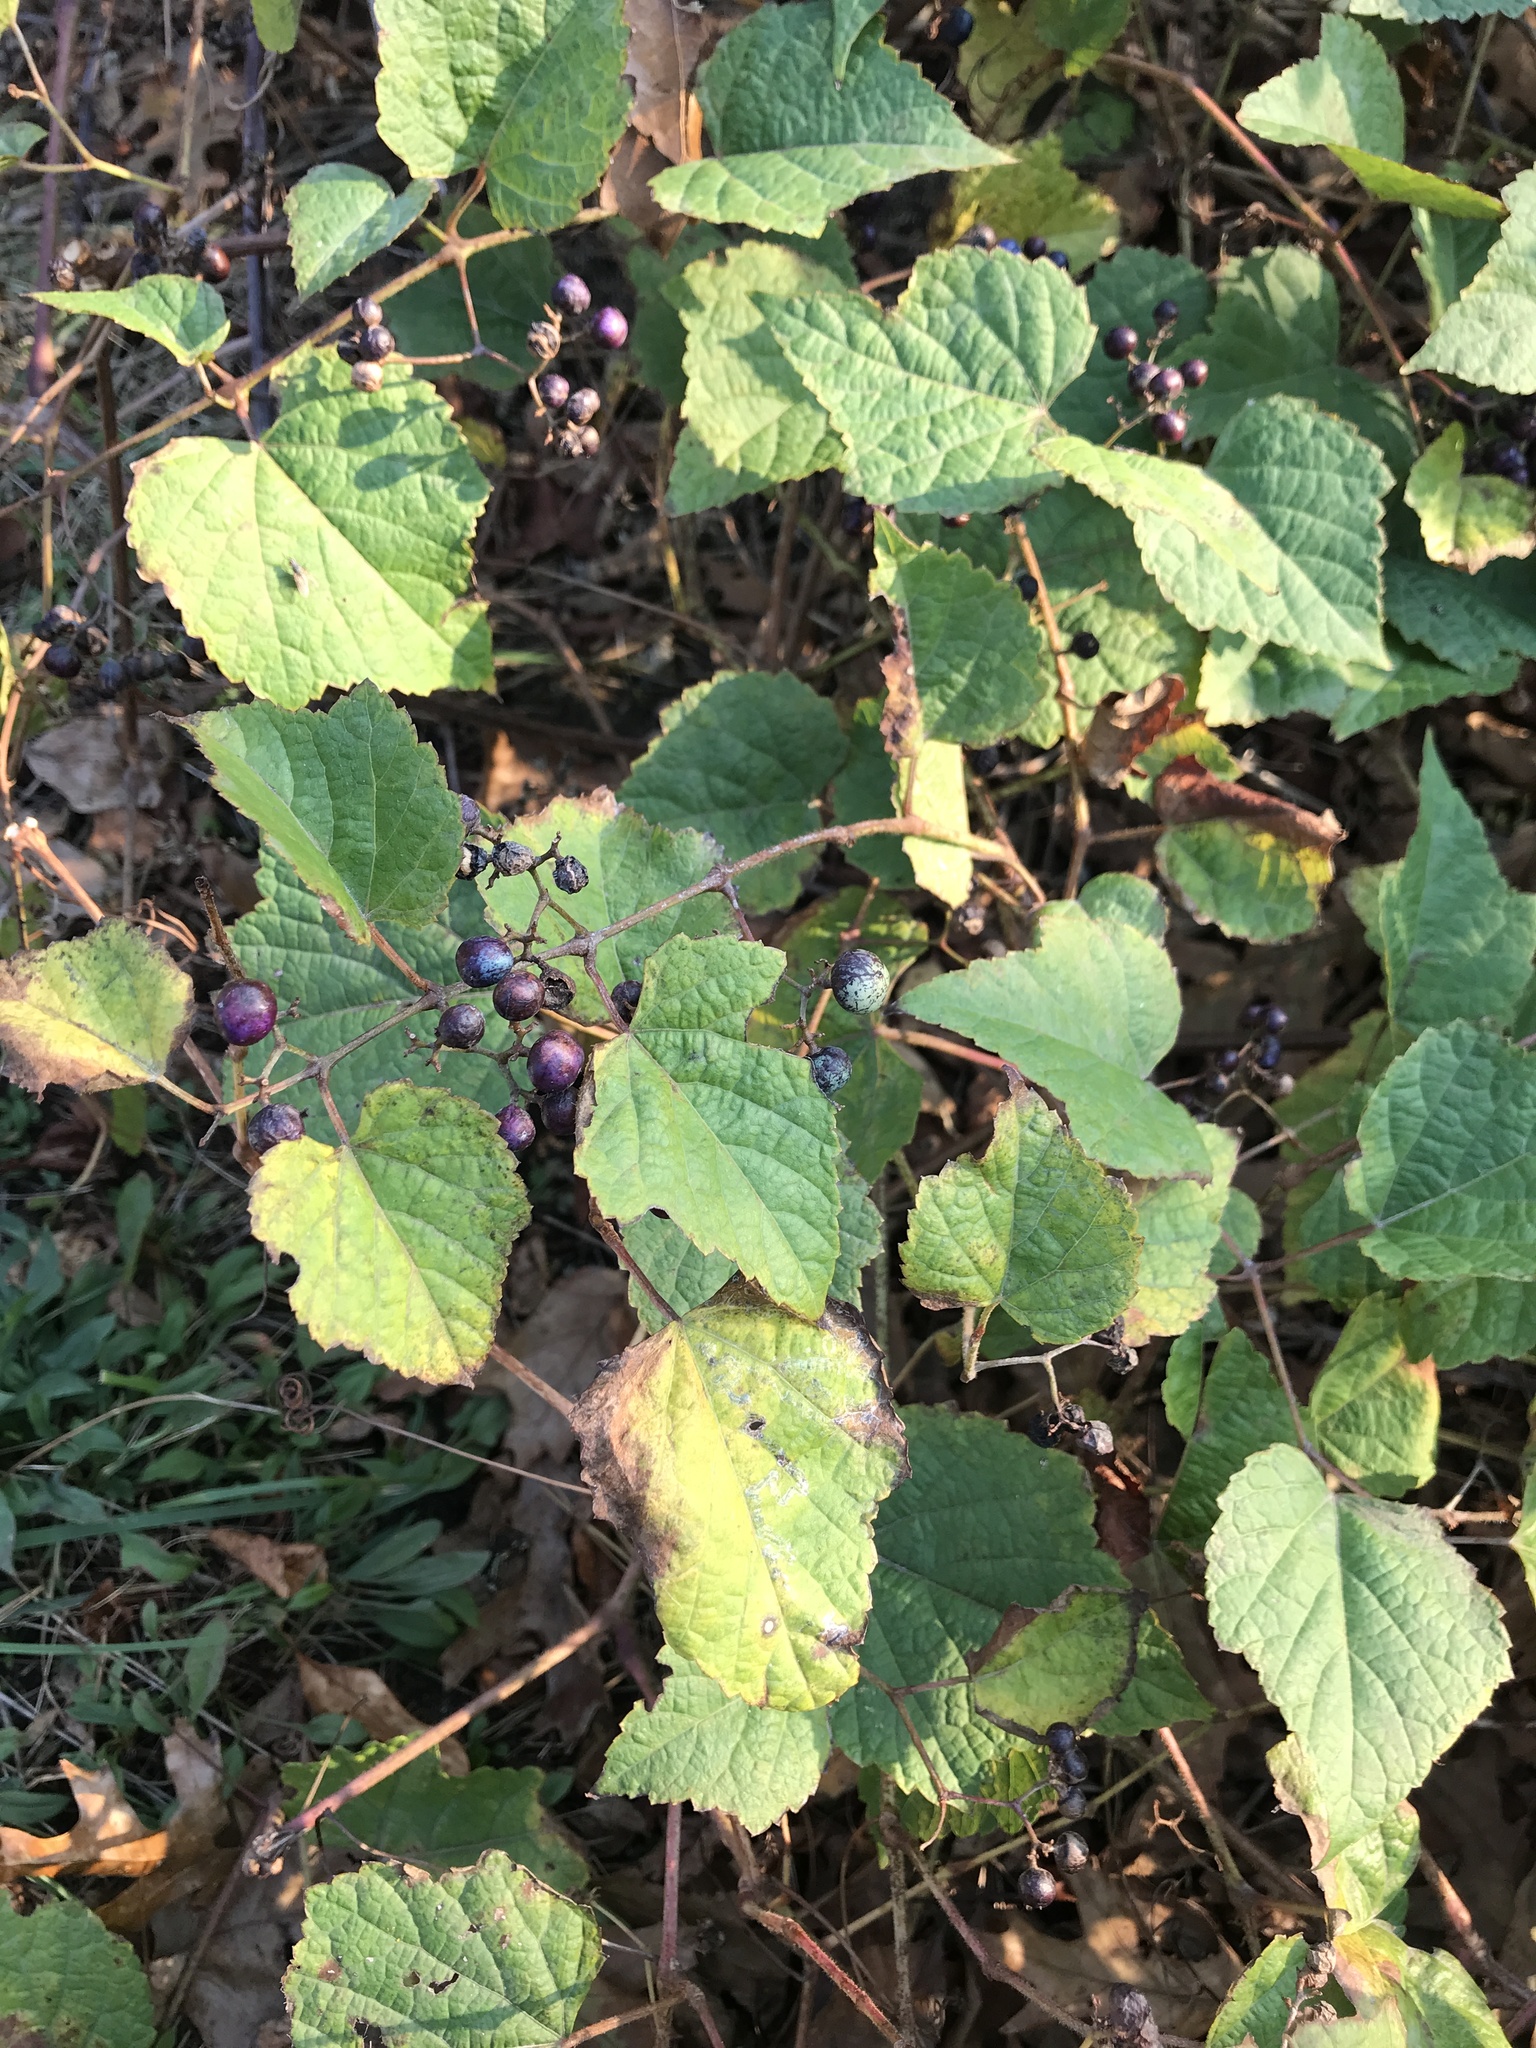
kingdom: Plantae
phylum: Tracheophyta
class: Magnoliopsida
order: Vitales
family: Vitaceae
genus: Ampelopsis
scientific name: Ampelopsis glandulosa
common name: Amur peppervine
